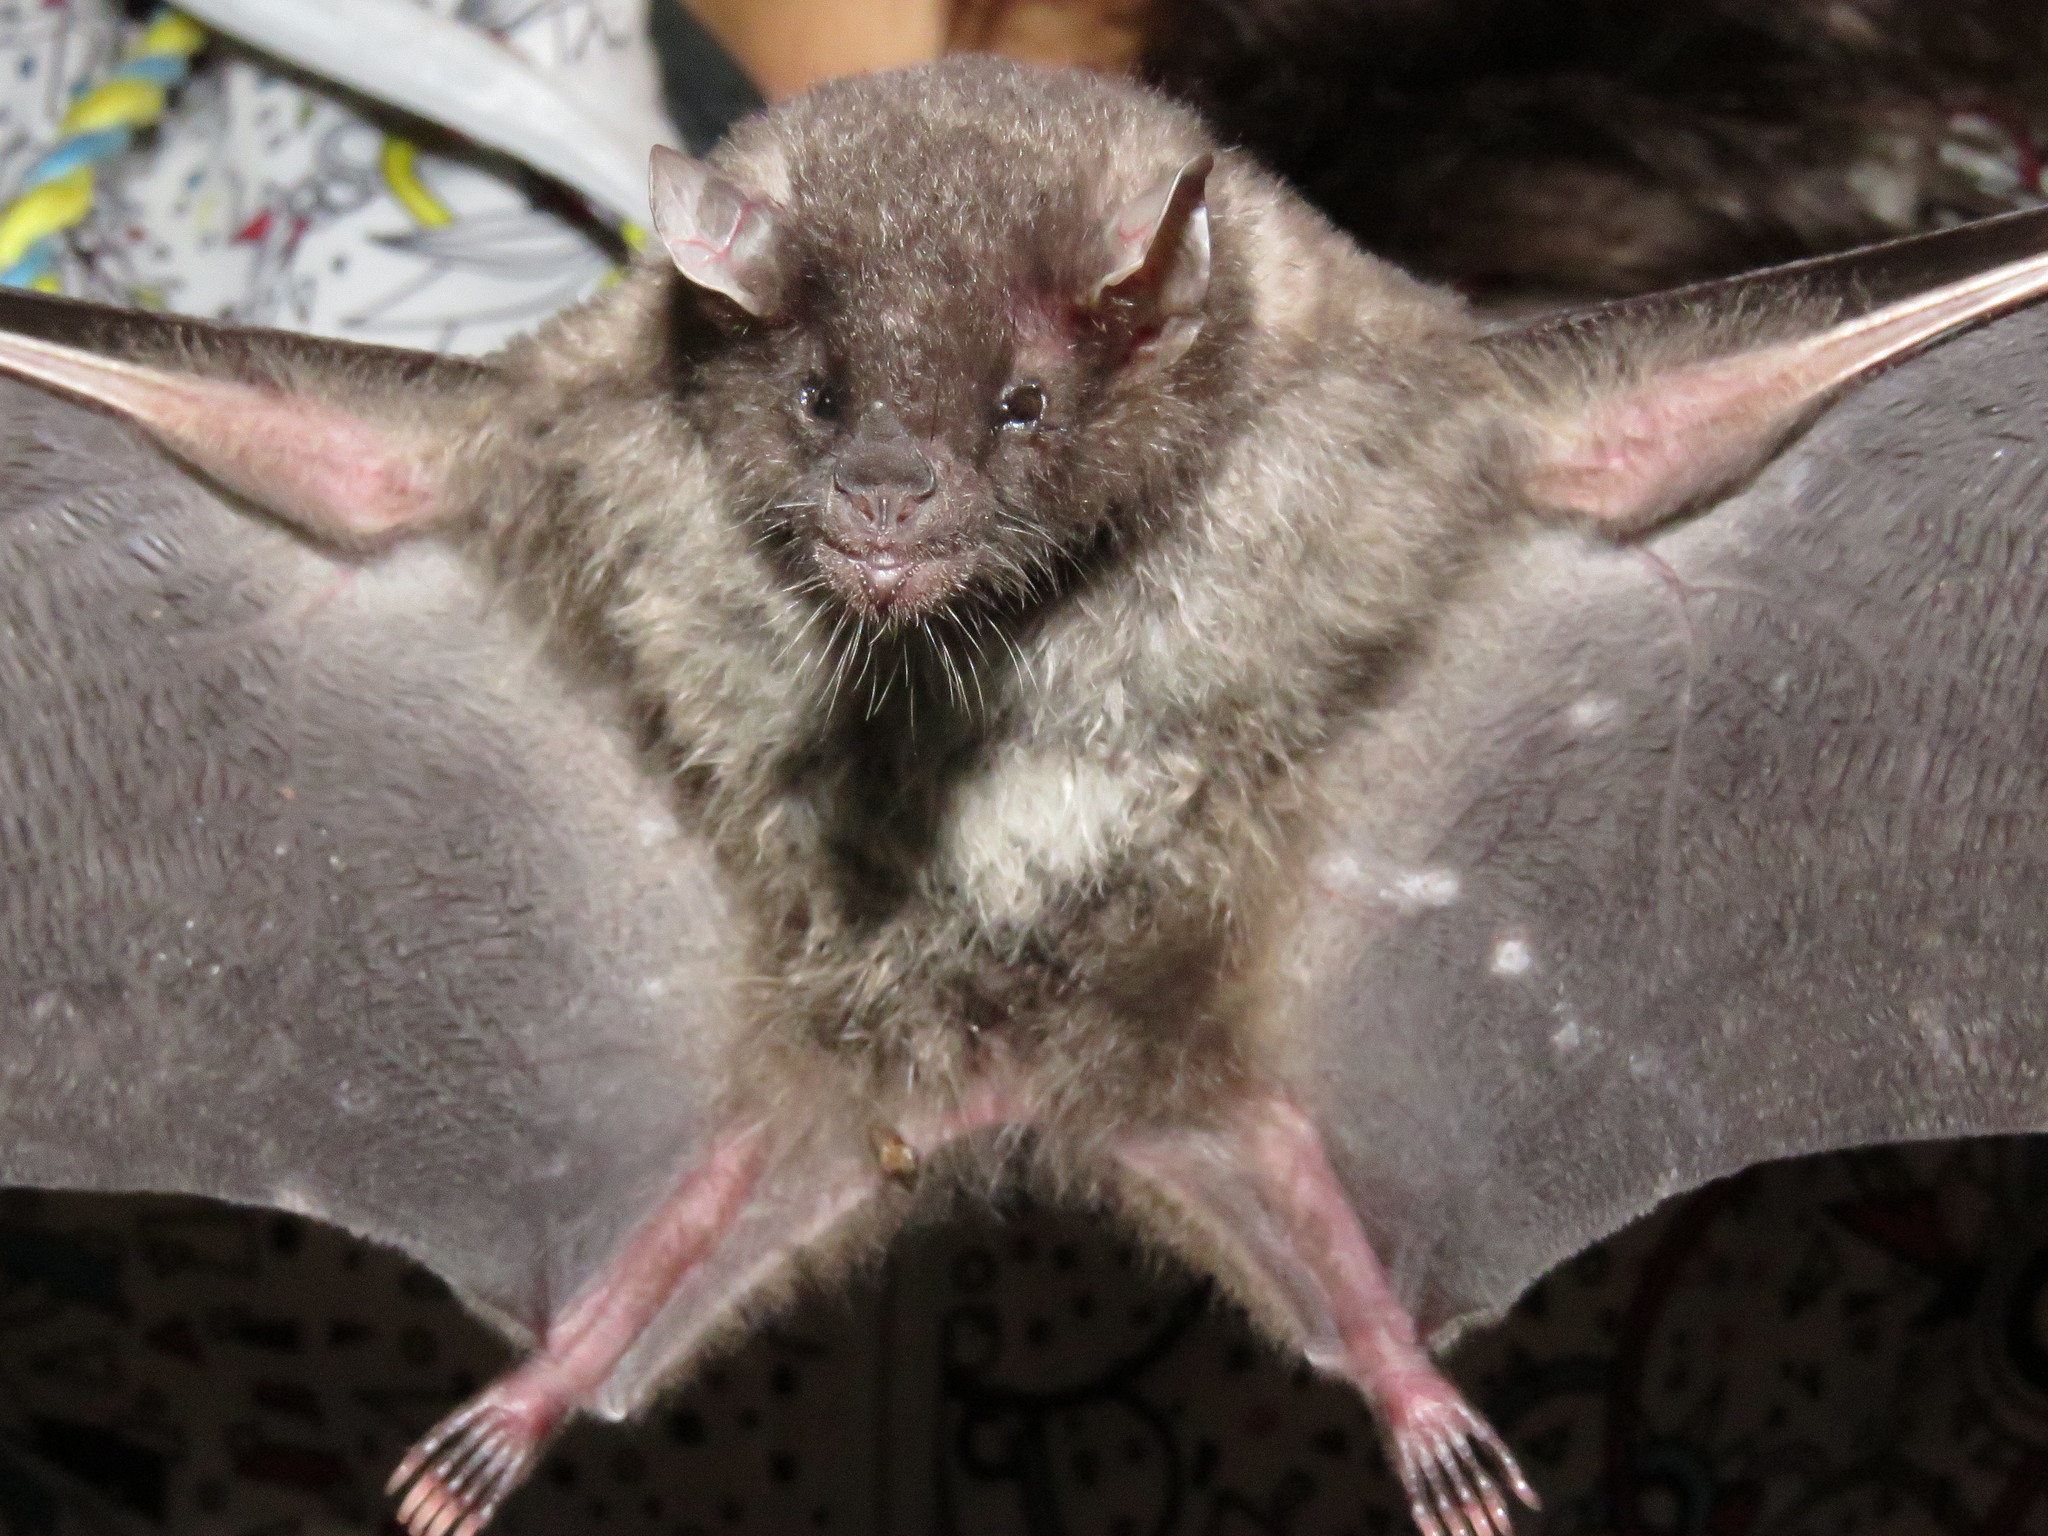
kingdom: Animalia
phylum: Chordata
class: Mammalia
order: Chiroptera
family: Phyllostomidae
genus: Anoura
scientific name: Anoura geoffroyi
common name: Geoffroy's tailless bat
